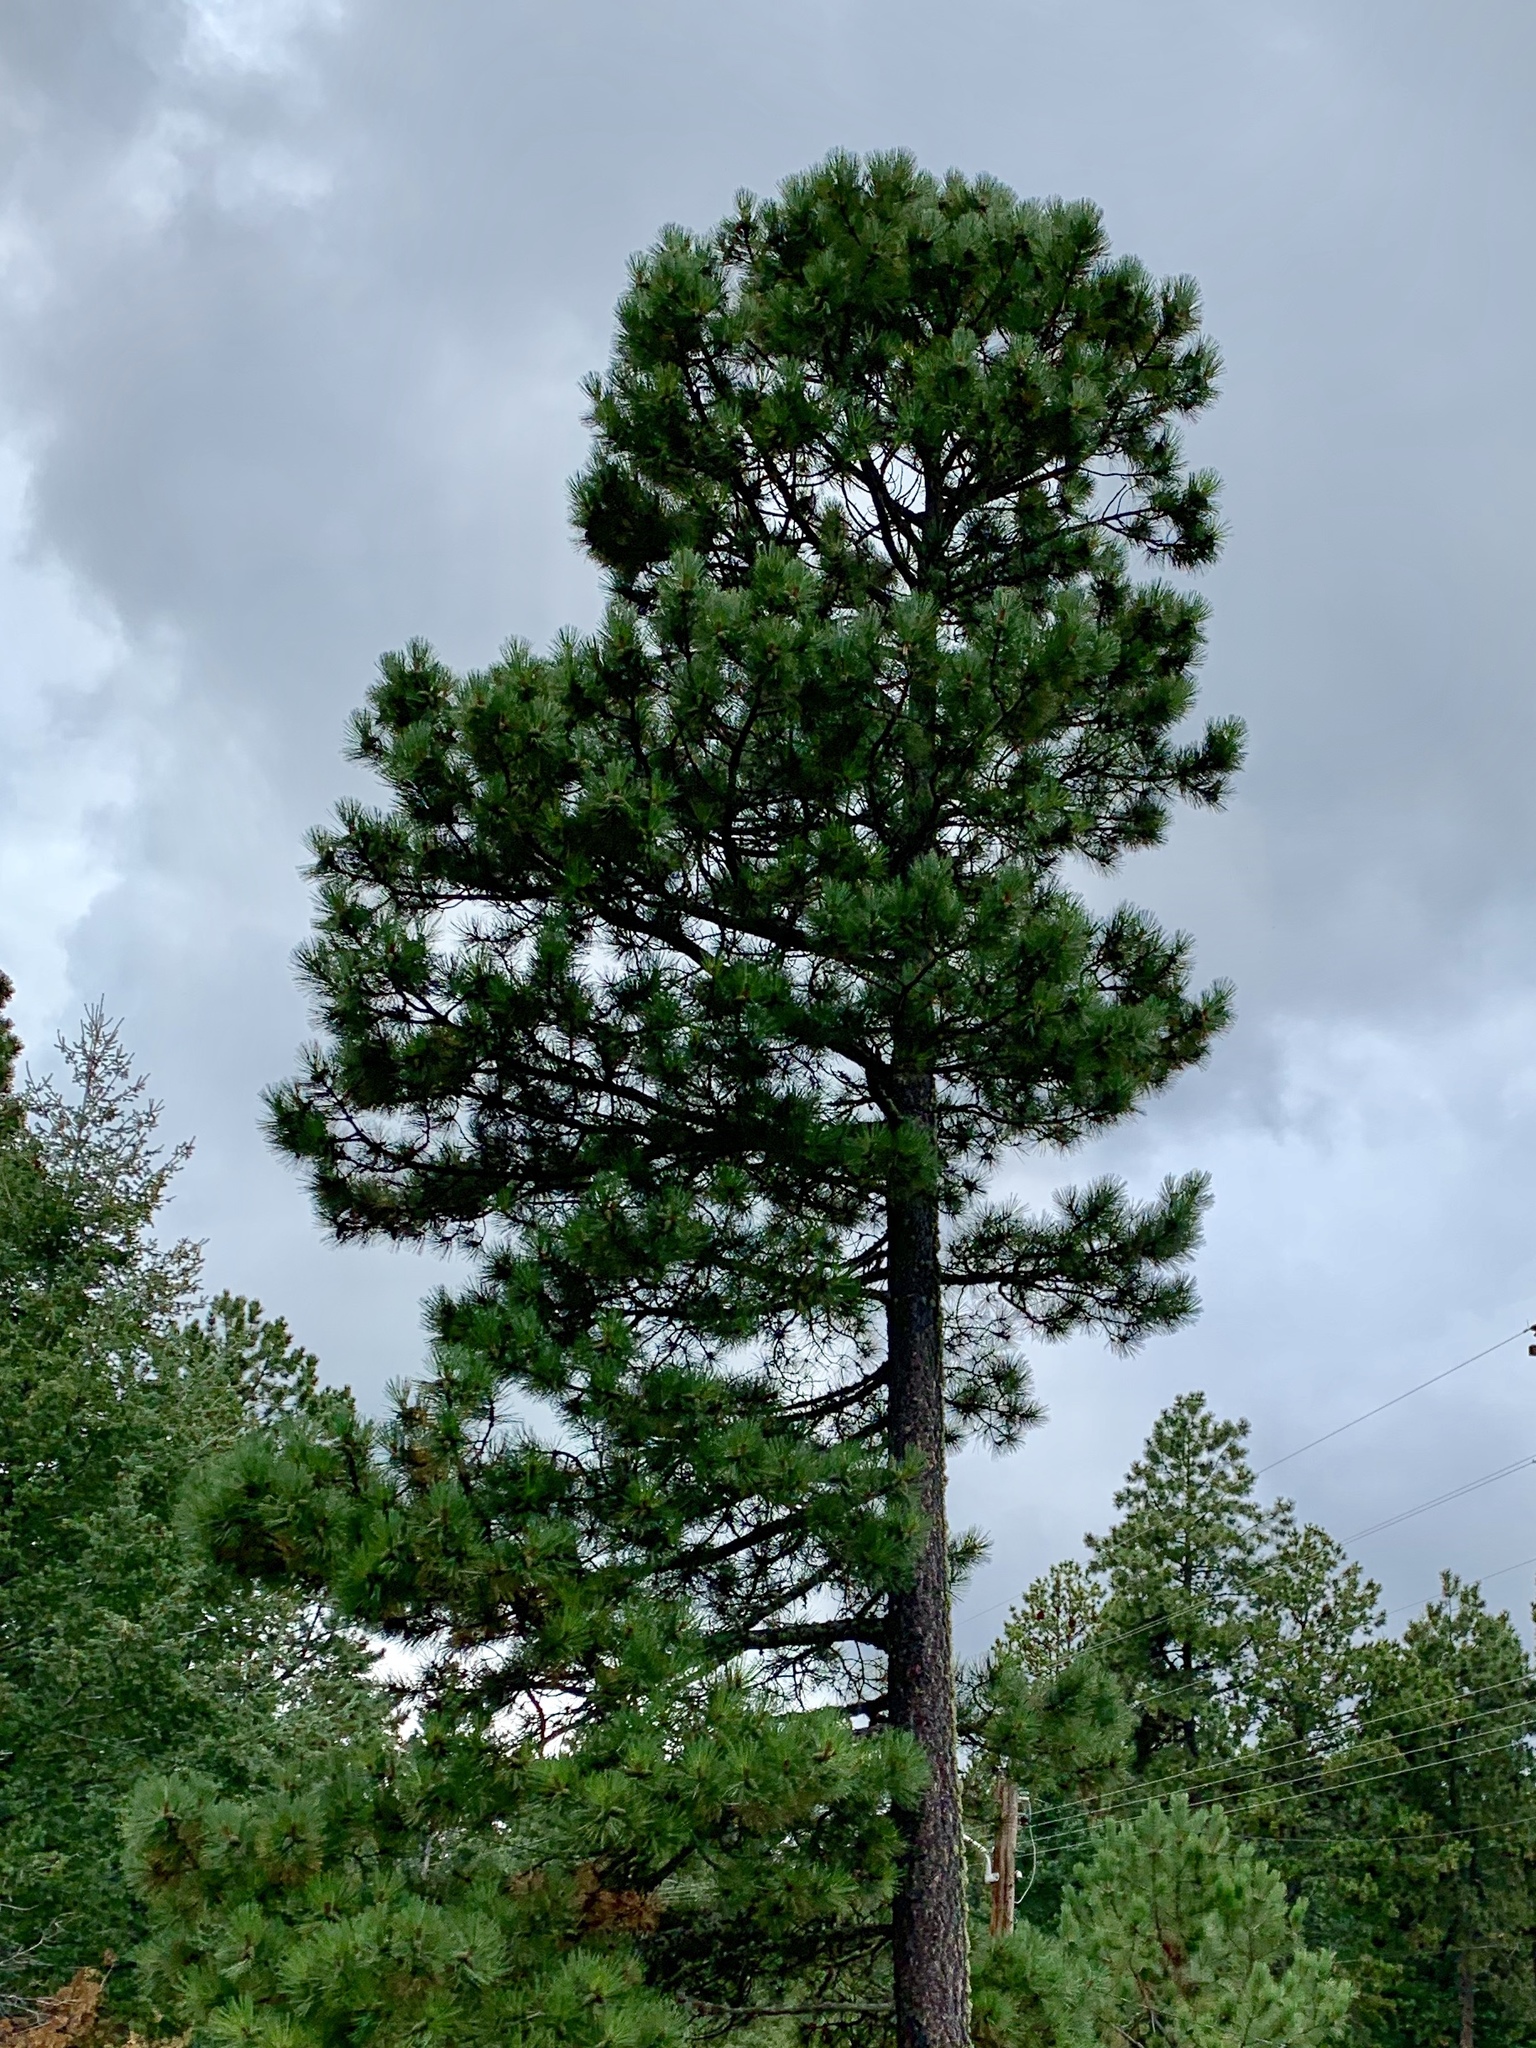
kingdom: Plantae
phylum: Tracheophyta
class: Pinopsida
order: Pinales
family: Pinaceae
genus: Pinus
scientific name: Pinus ponderosa
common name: Western yellow-pine
